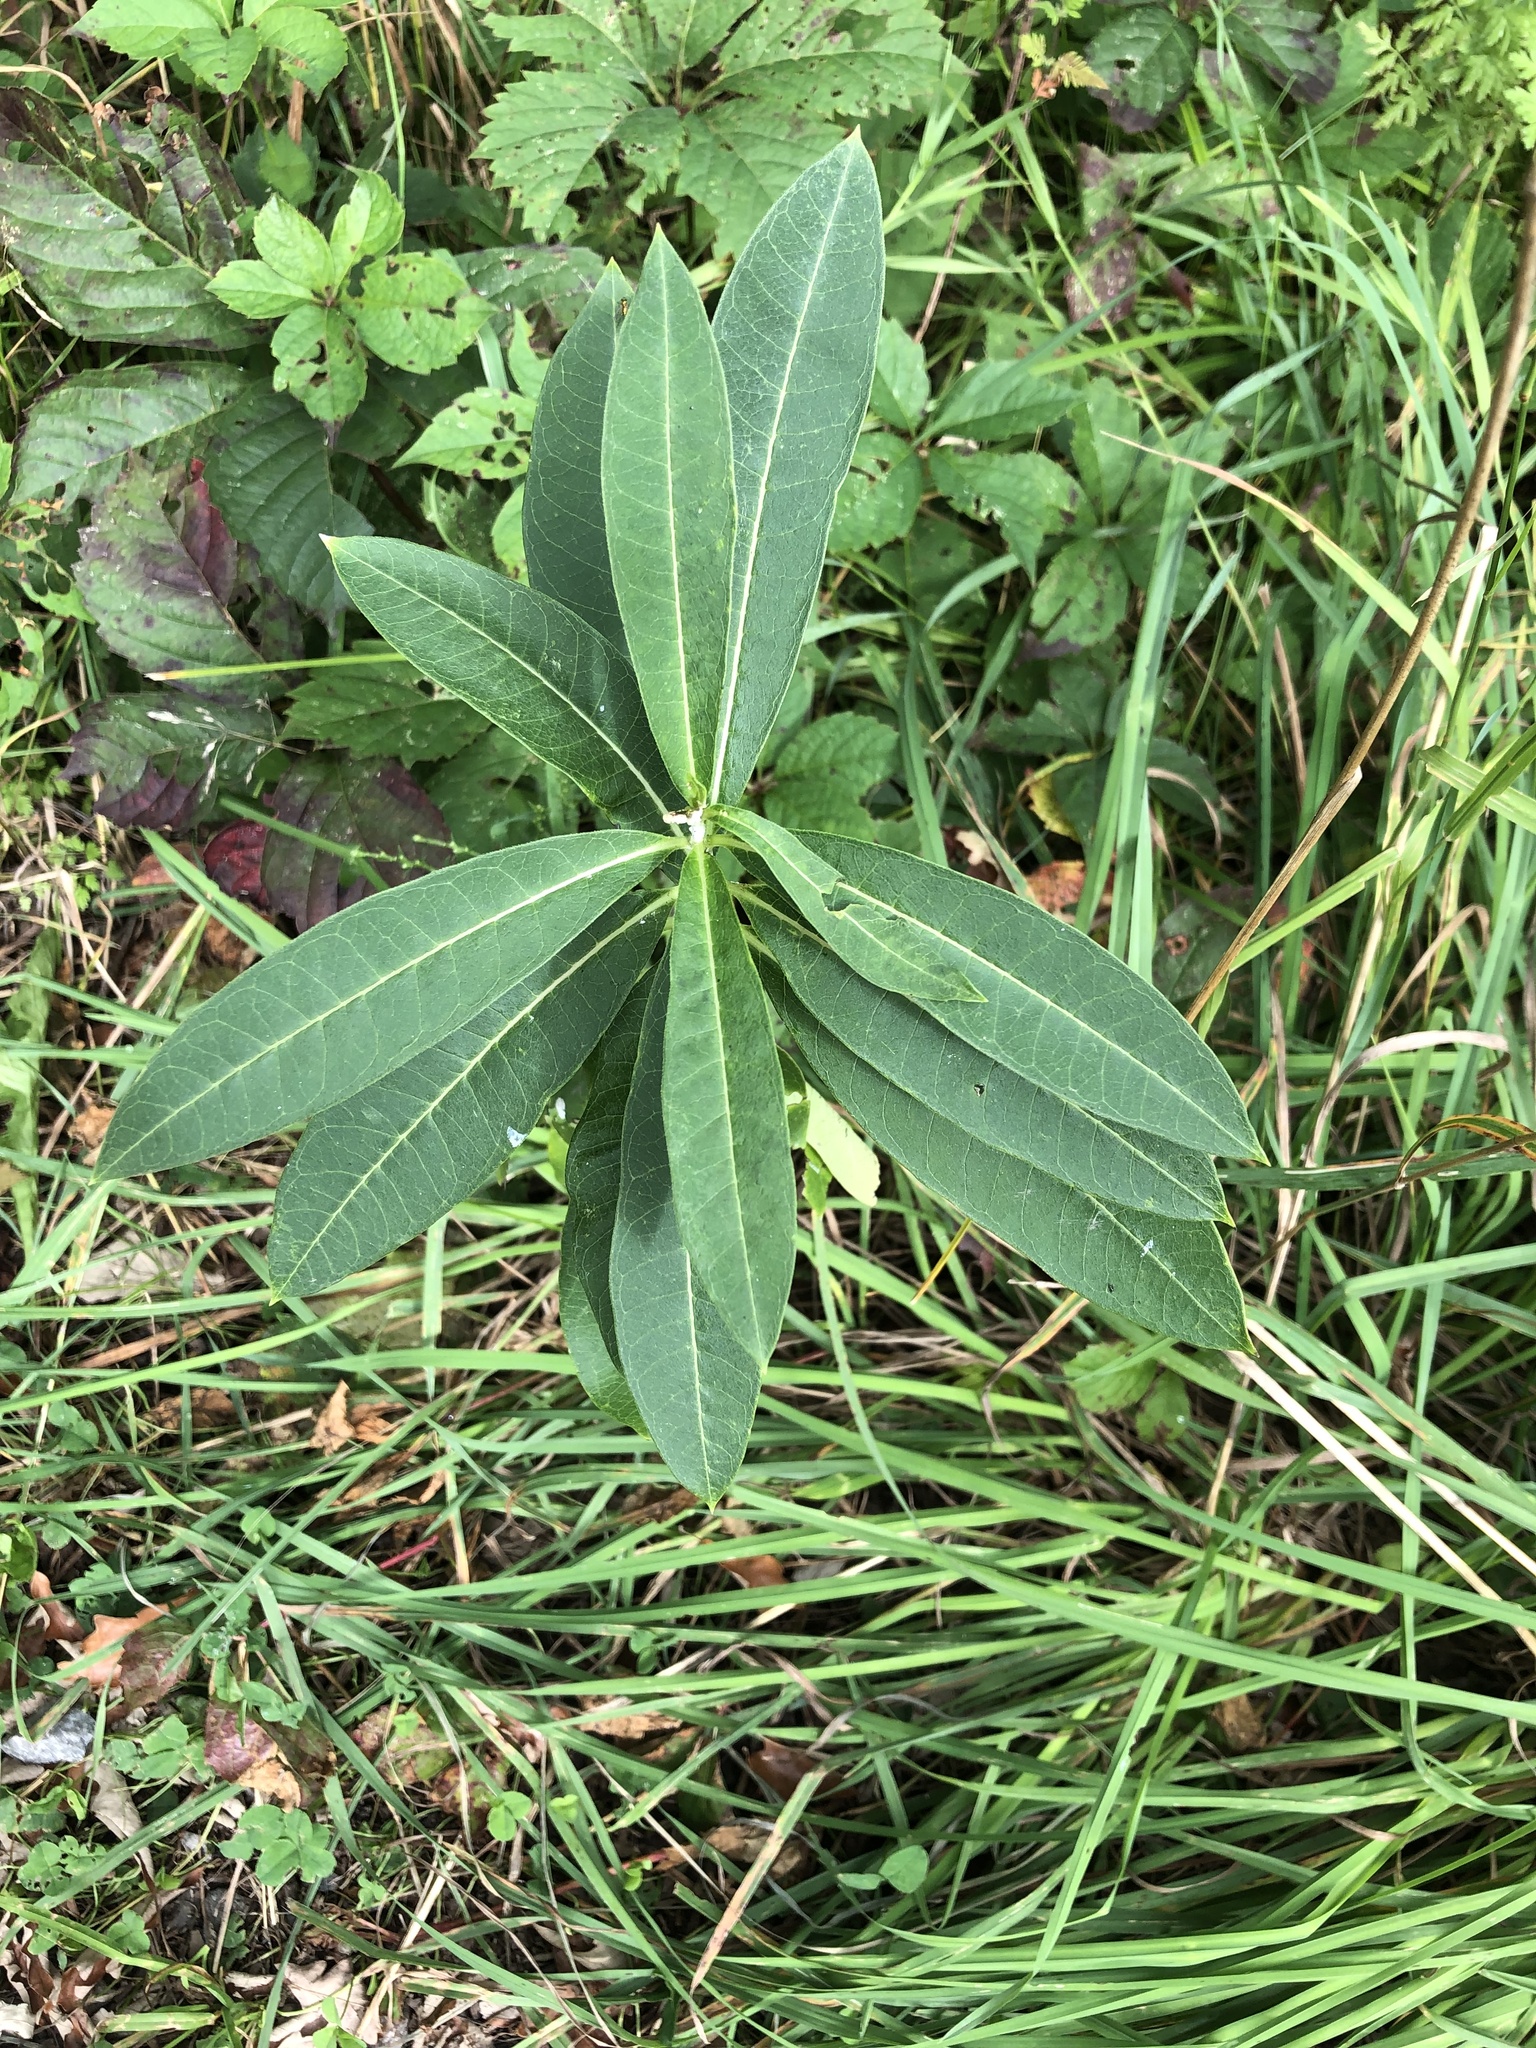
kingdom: Plantae
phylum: Tracheophyta
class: Magnoliopsida
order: Gentianales
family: Apocynaceae
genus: Asclepias
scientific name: Asclepias syriaca
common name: Common milkweed
